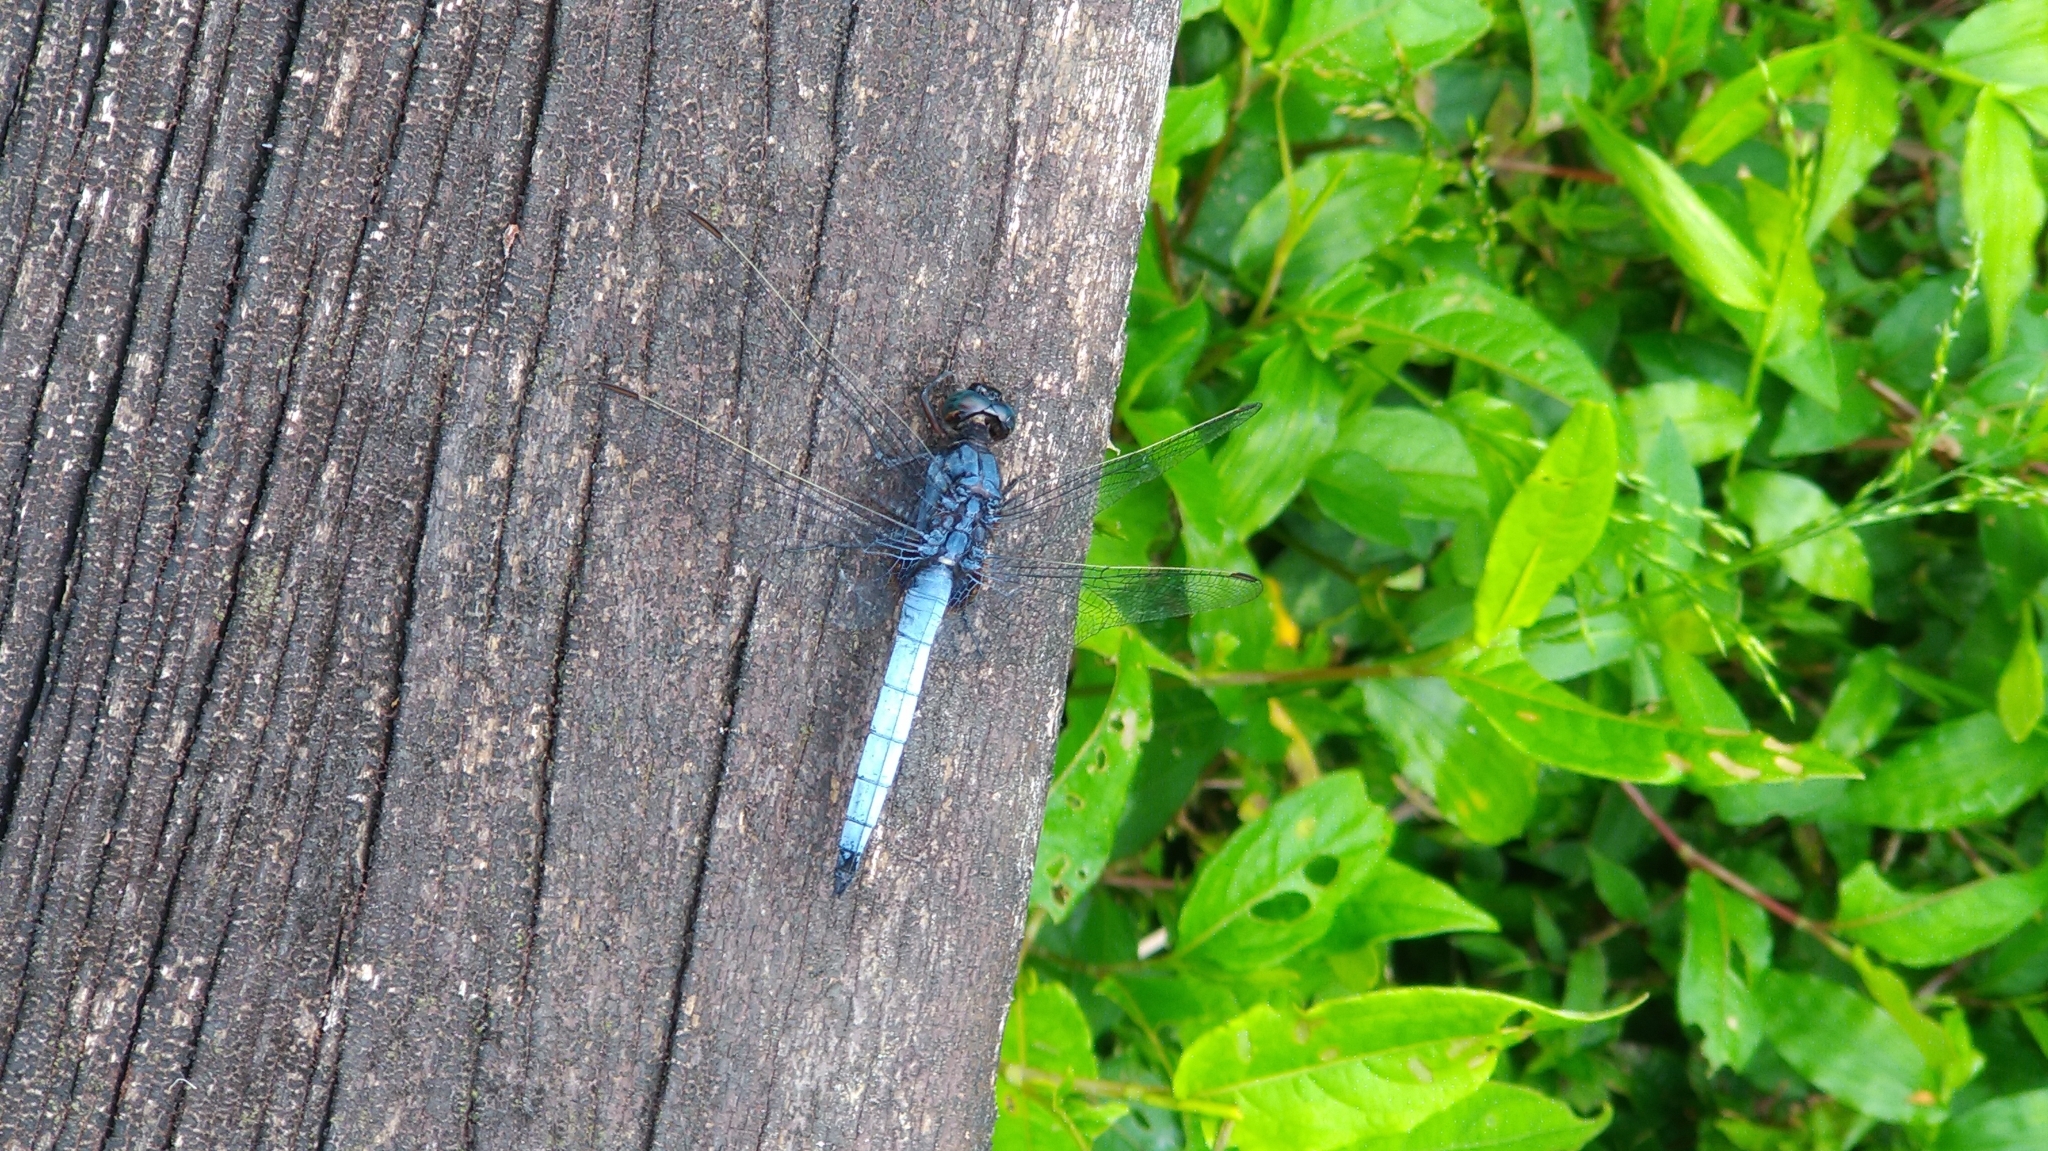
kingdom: Animalia
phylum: Arthropoda
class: Insecta
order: Odonata
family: Libellulidae
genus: Orthetrum
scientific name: Orthetrum glaucum
